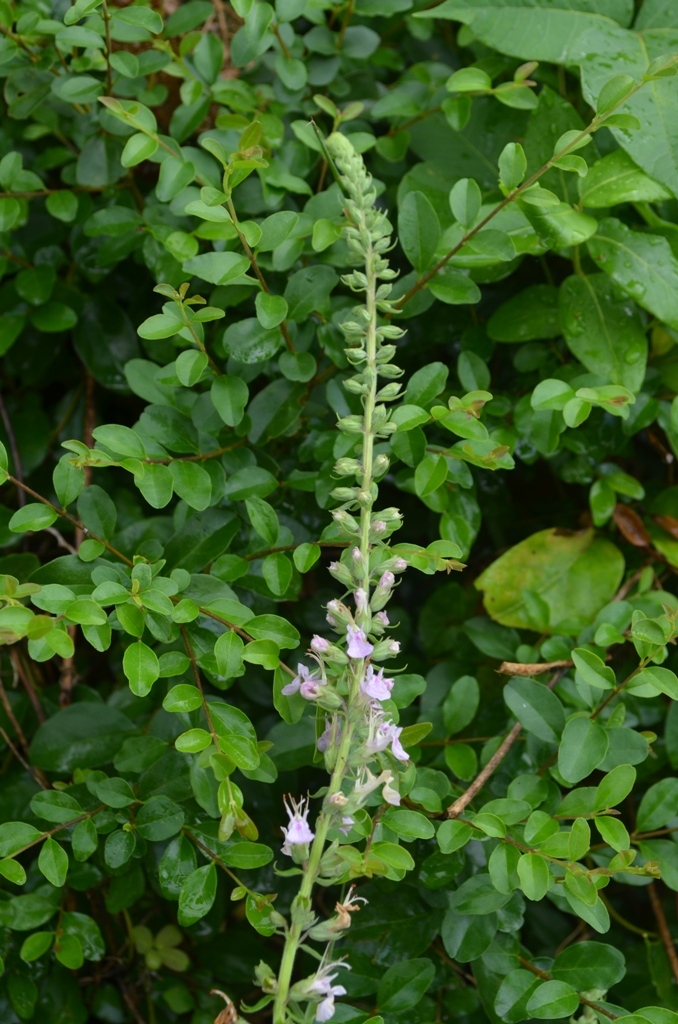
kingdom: Plantae
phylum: Tracheophyta
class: Magnoliopsida
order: Lamiales
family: Lamiaceae
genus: Teucrium
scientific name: Teucrium canadense
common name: American germander
